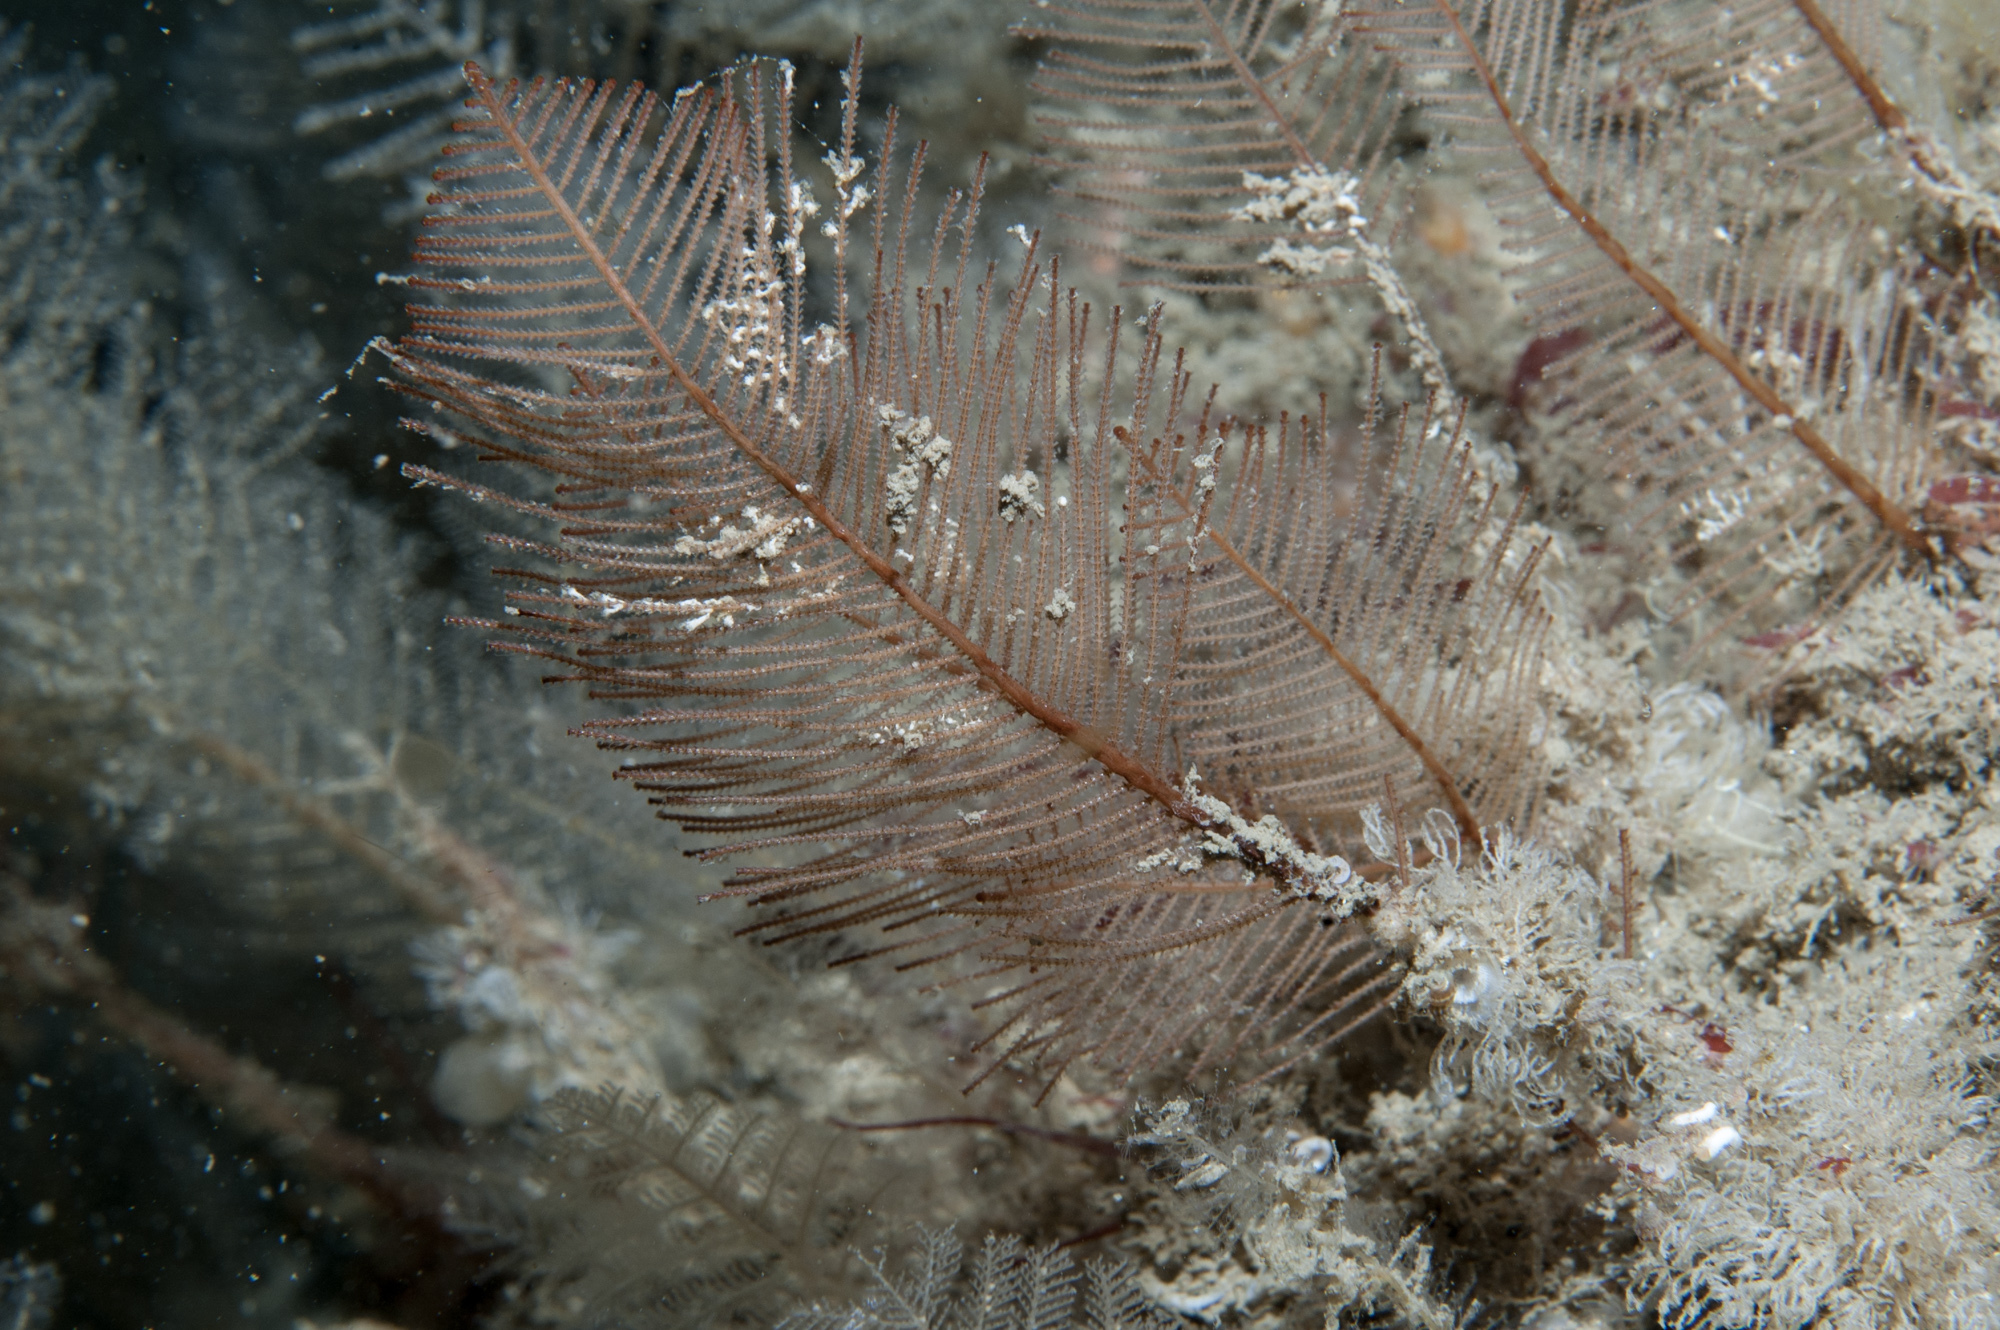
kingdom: Animalia
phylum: Cnidaria
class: Hydrozoa
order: Leptothecata
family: Sertulariidae
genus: Diphasia
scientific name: Diphasia alata
